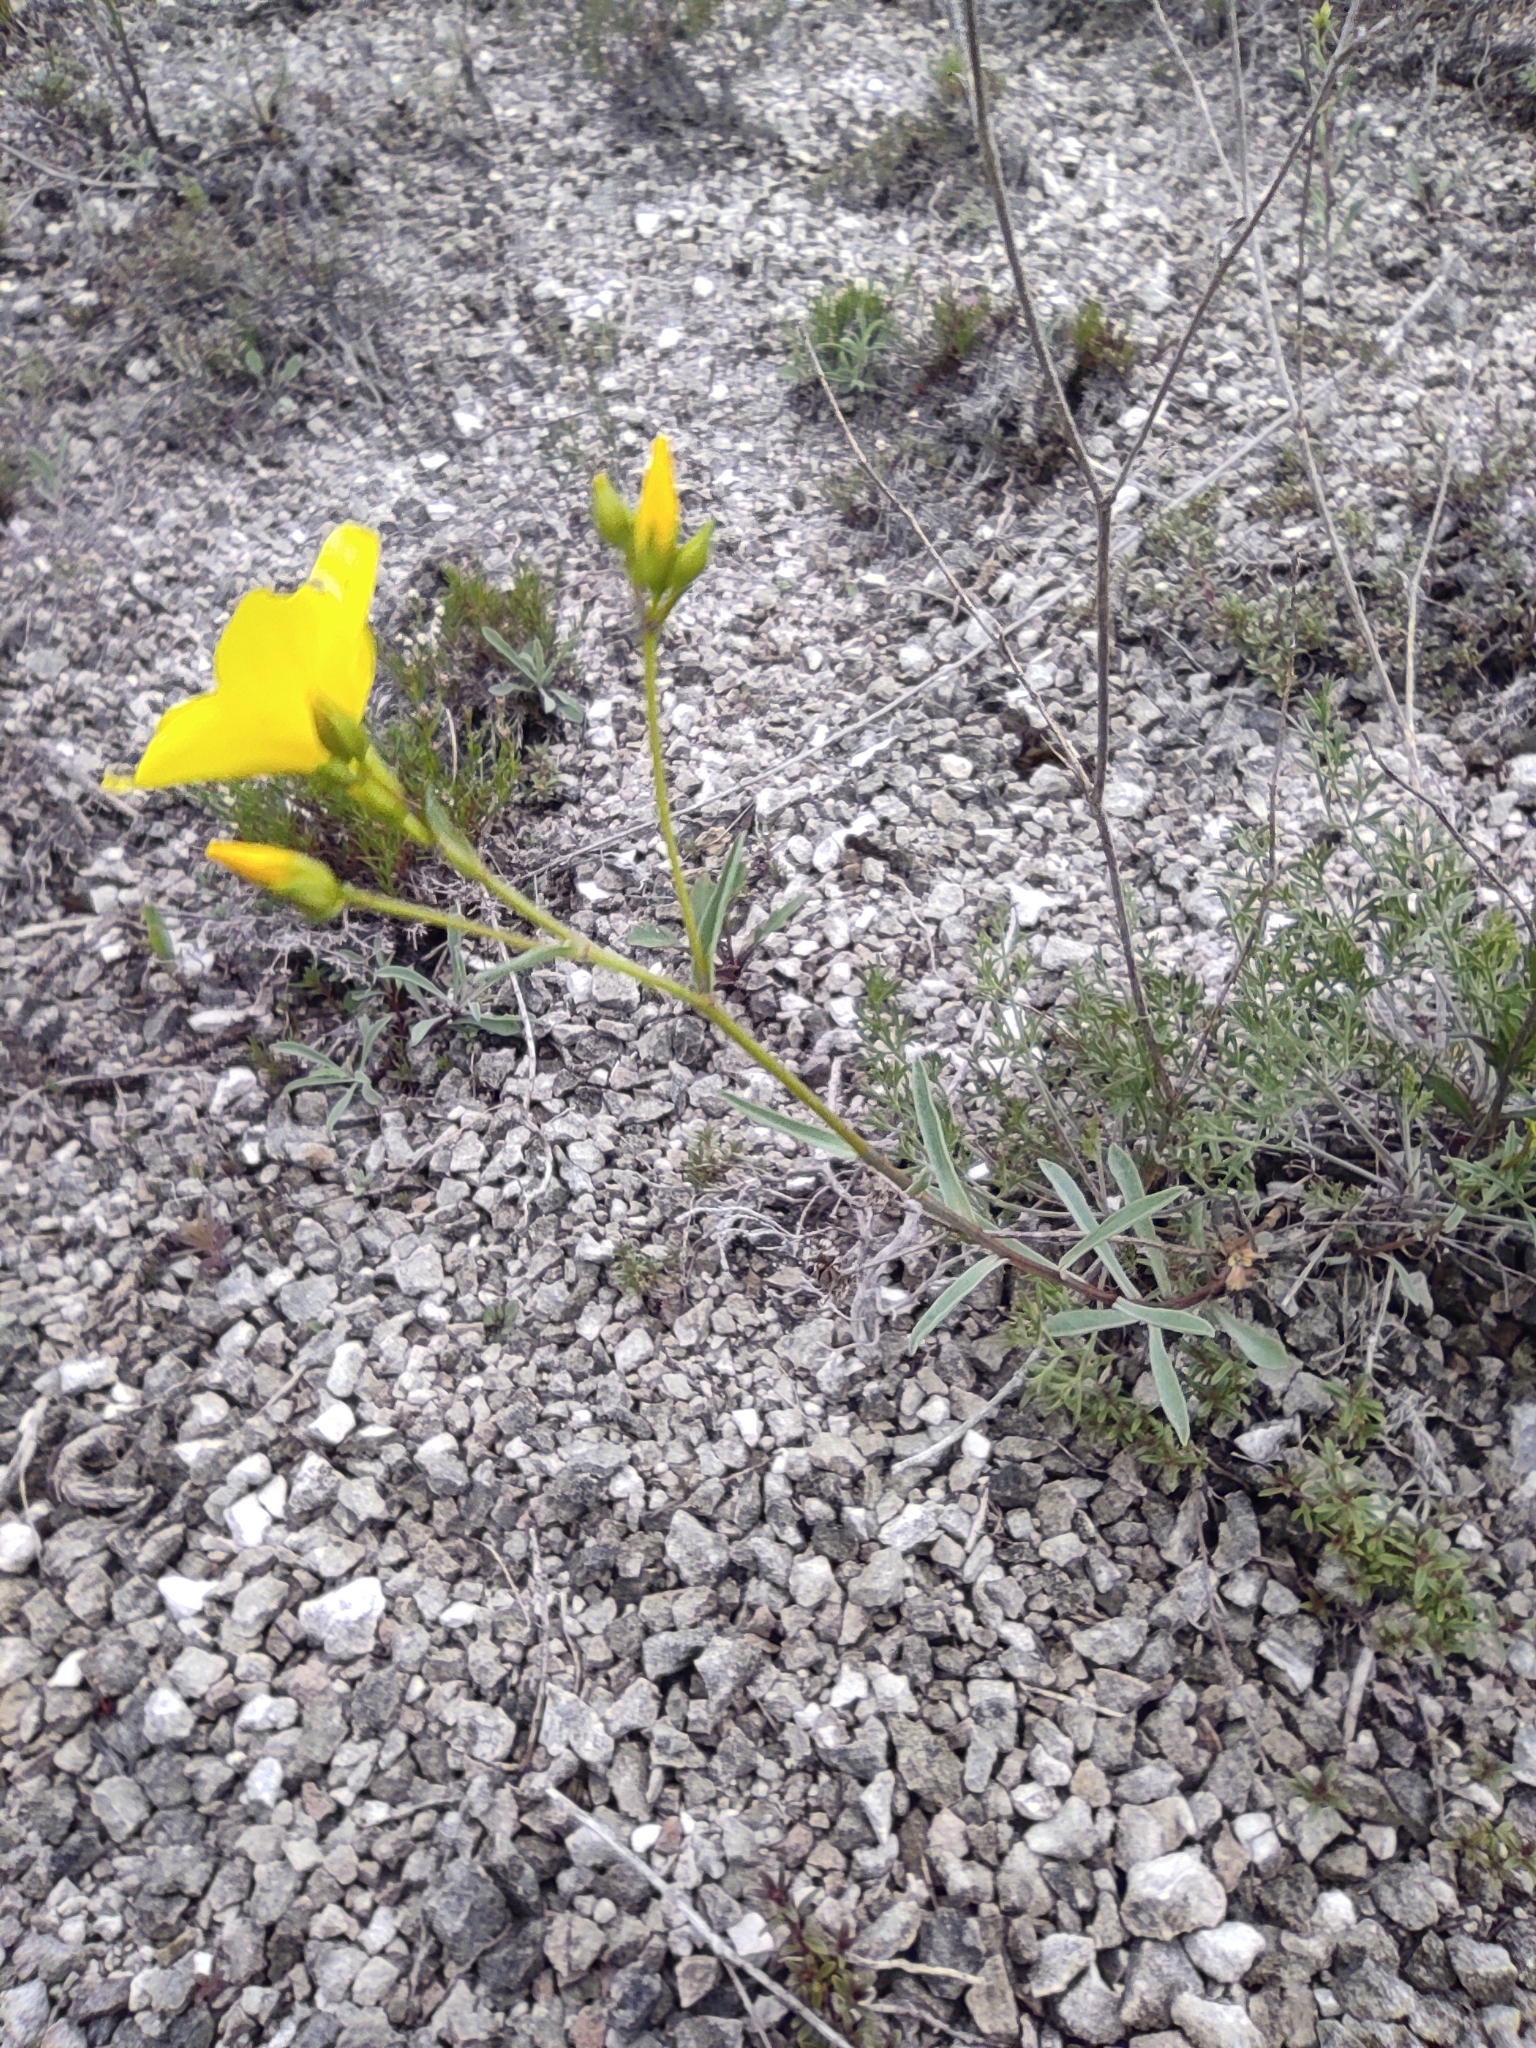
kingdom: Plantae
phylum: Tracheophyta
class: Magnoliopsida
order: Malpighiales
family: Linaceae
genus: Linum
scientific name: Linum ucranicum
